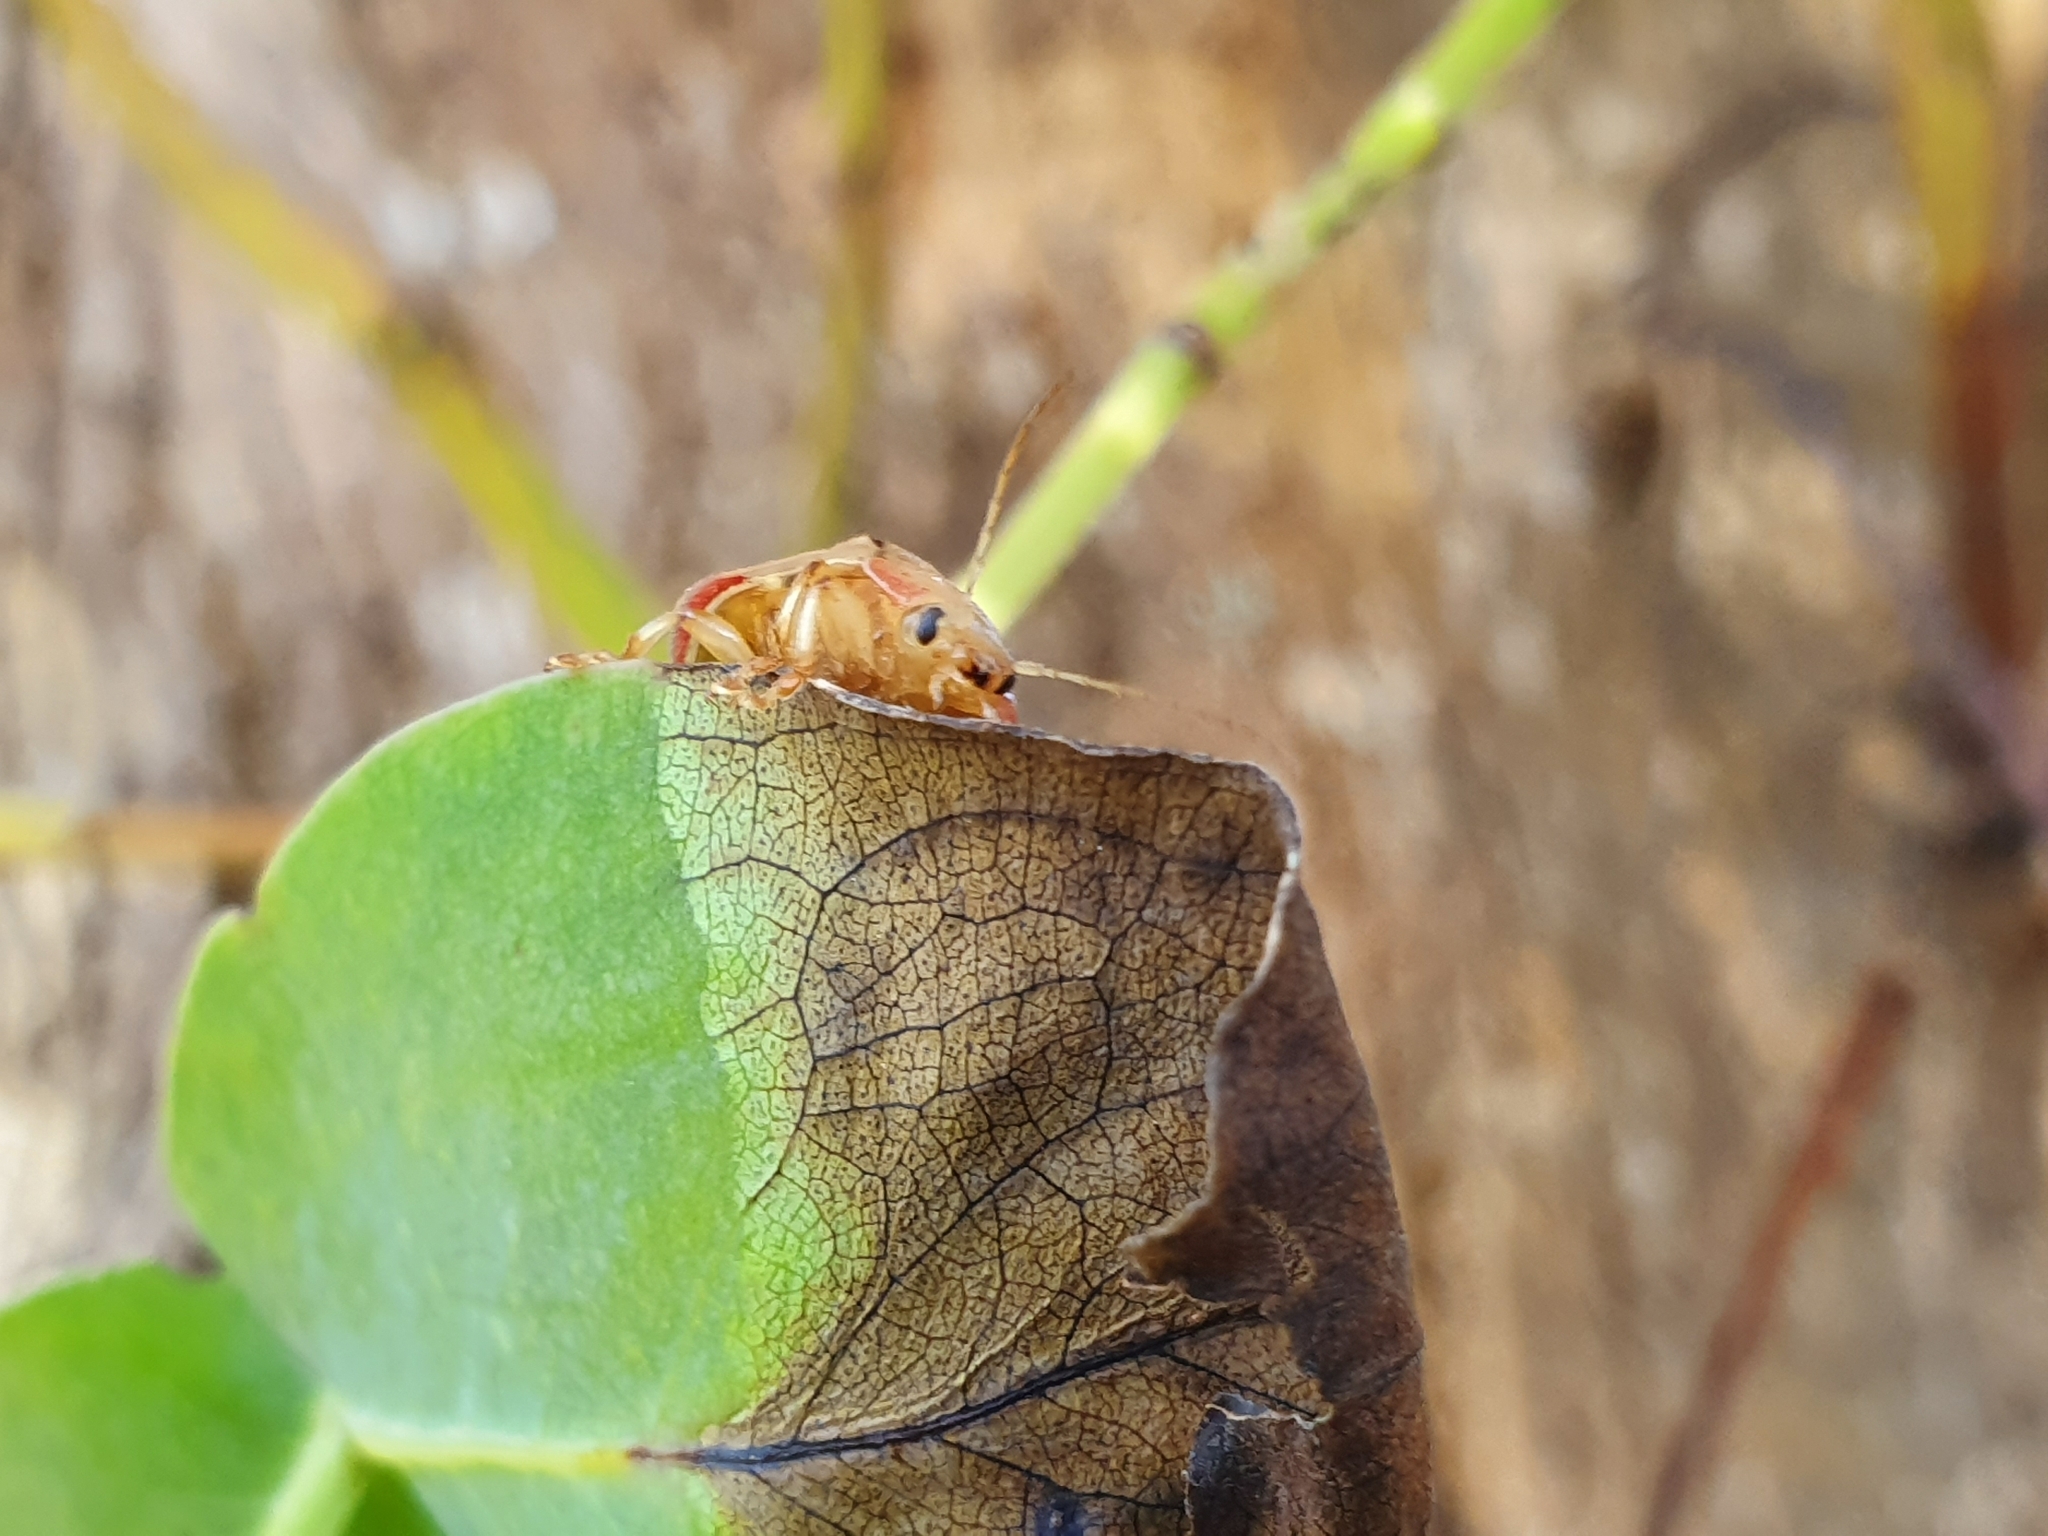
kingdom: Animalia
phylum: Arthropoda
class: Insecta
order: Coleoptera
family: Chrysomelidae
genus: Paropsis
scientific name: Paropsis charybdis
